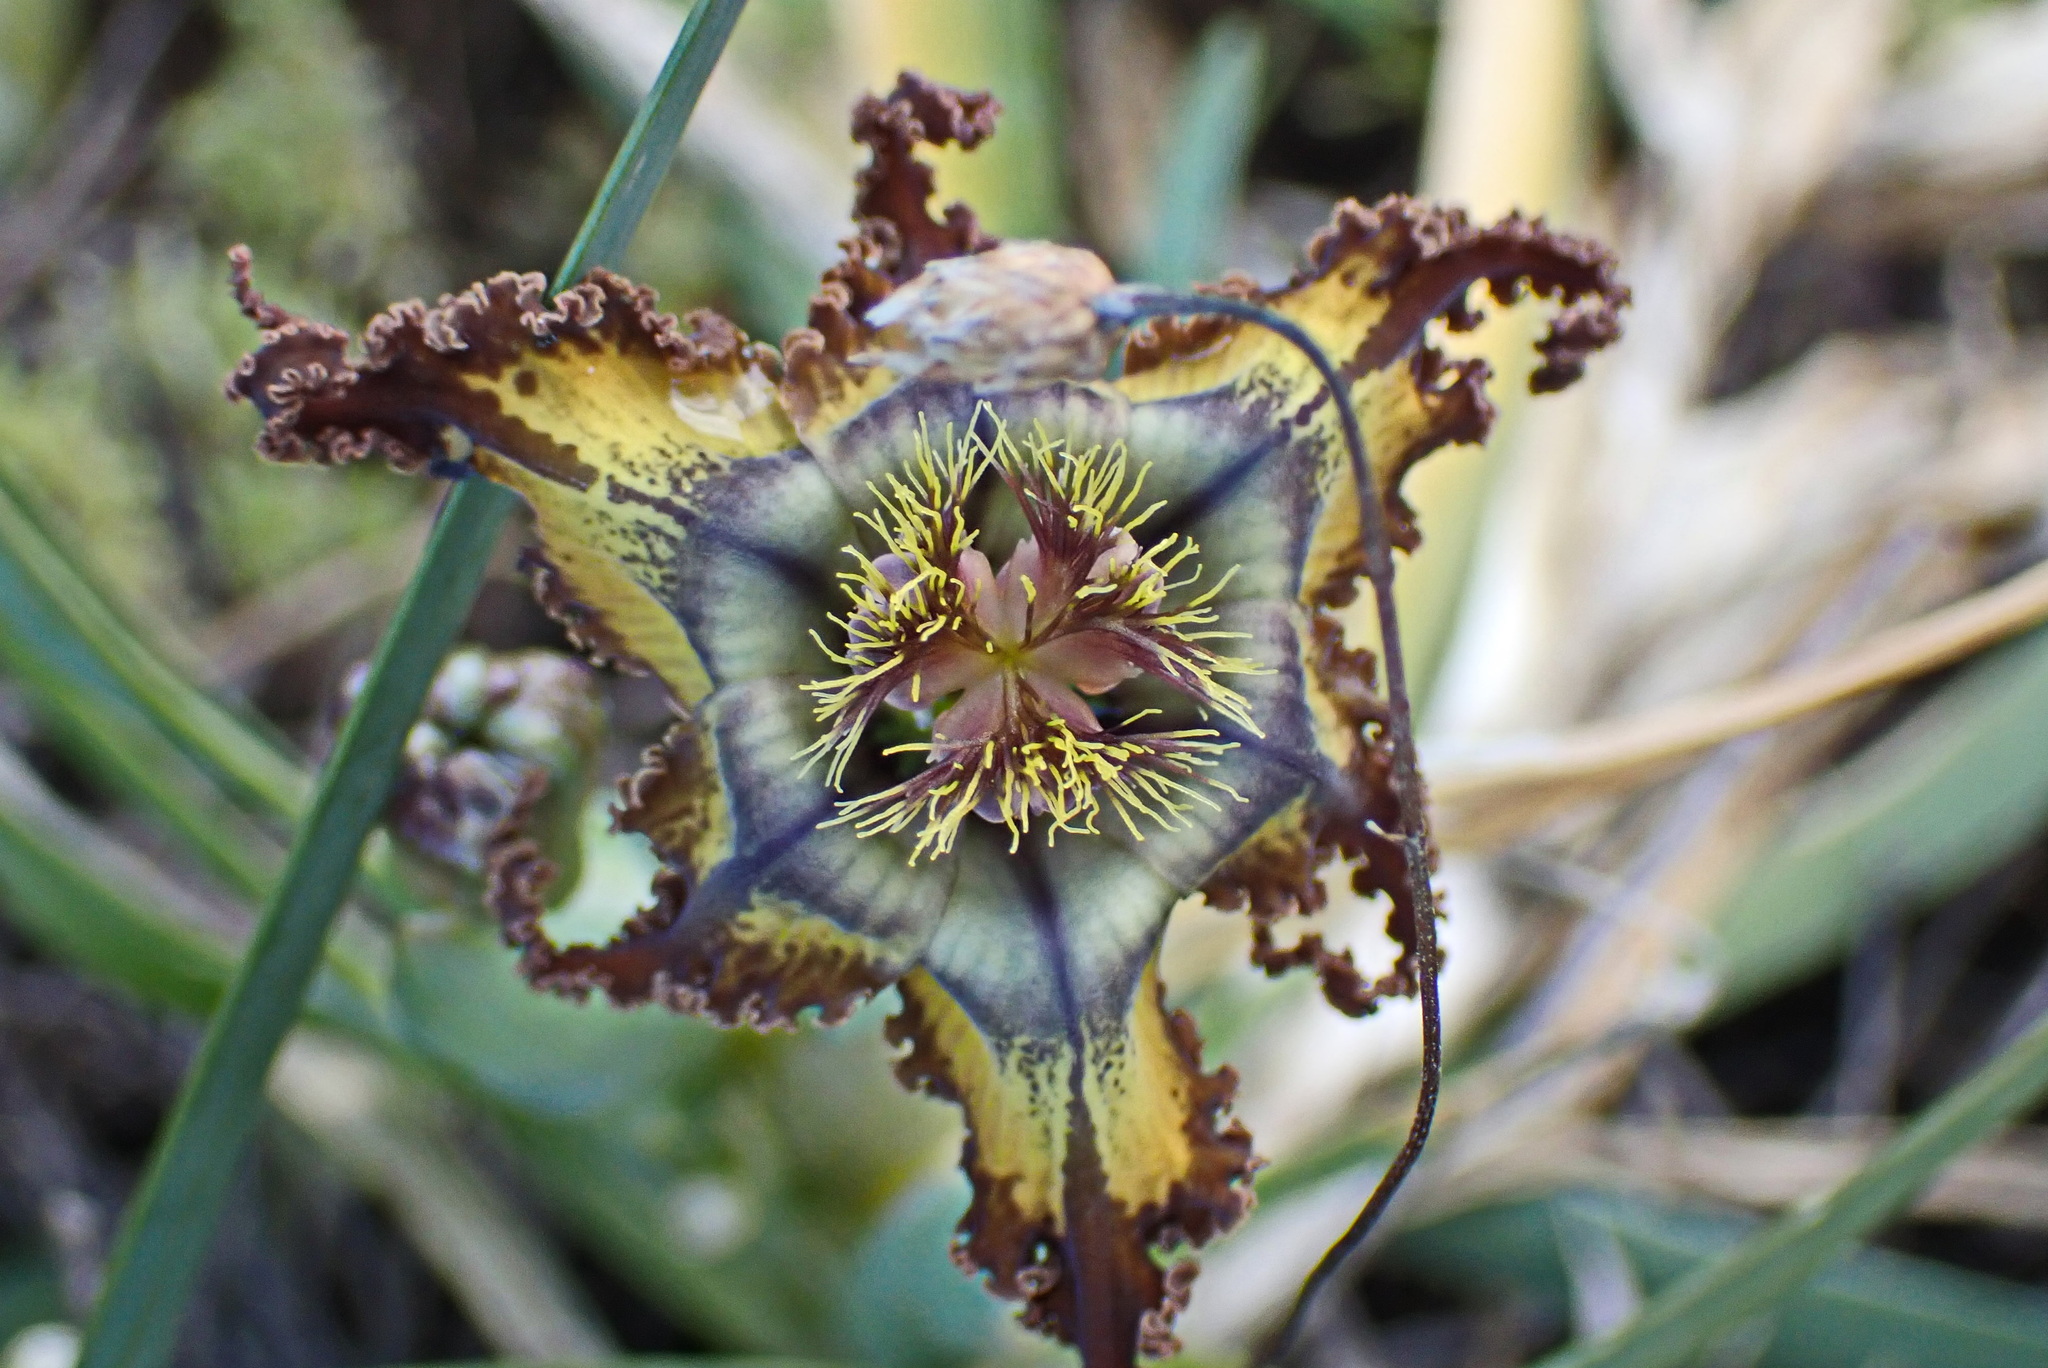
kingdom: Plantae
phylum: Tracheophyta
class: Liliopsida
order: Asparagales
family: Iridaceae
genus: Ferraria
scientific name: Ferraria crispa
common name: Black-flag
